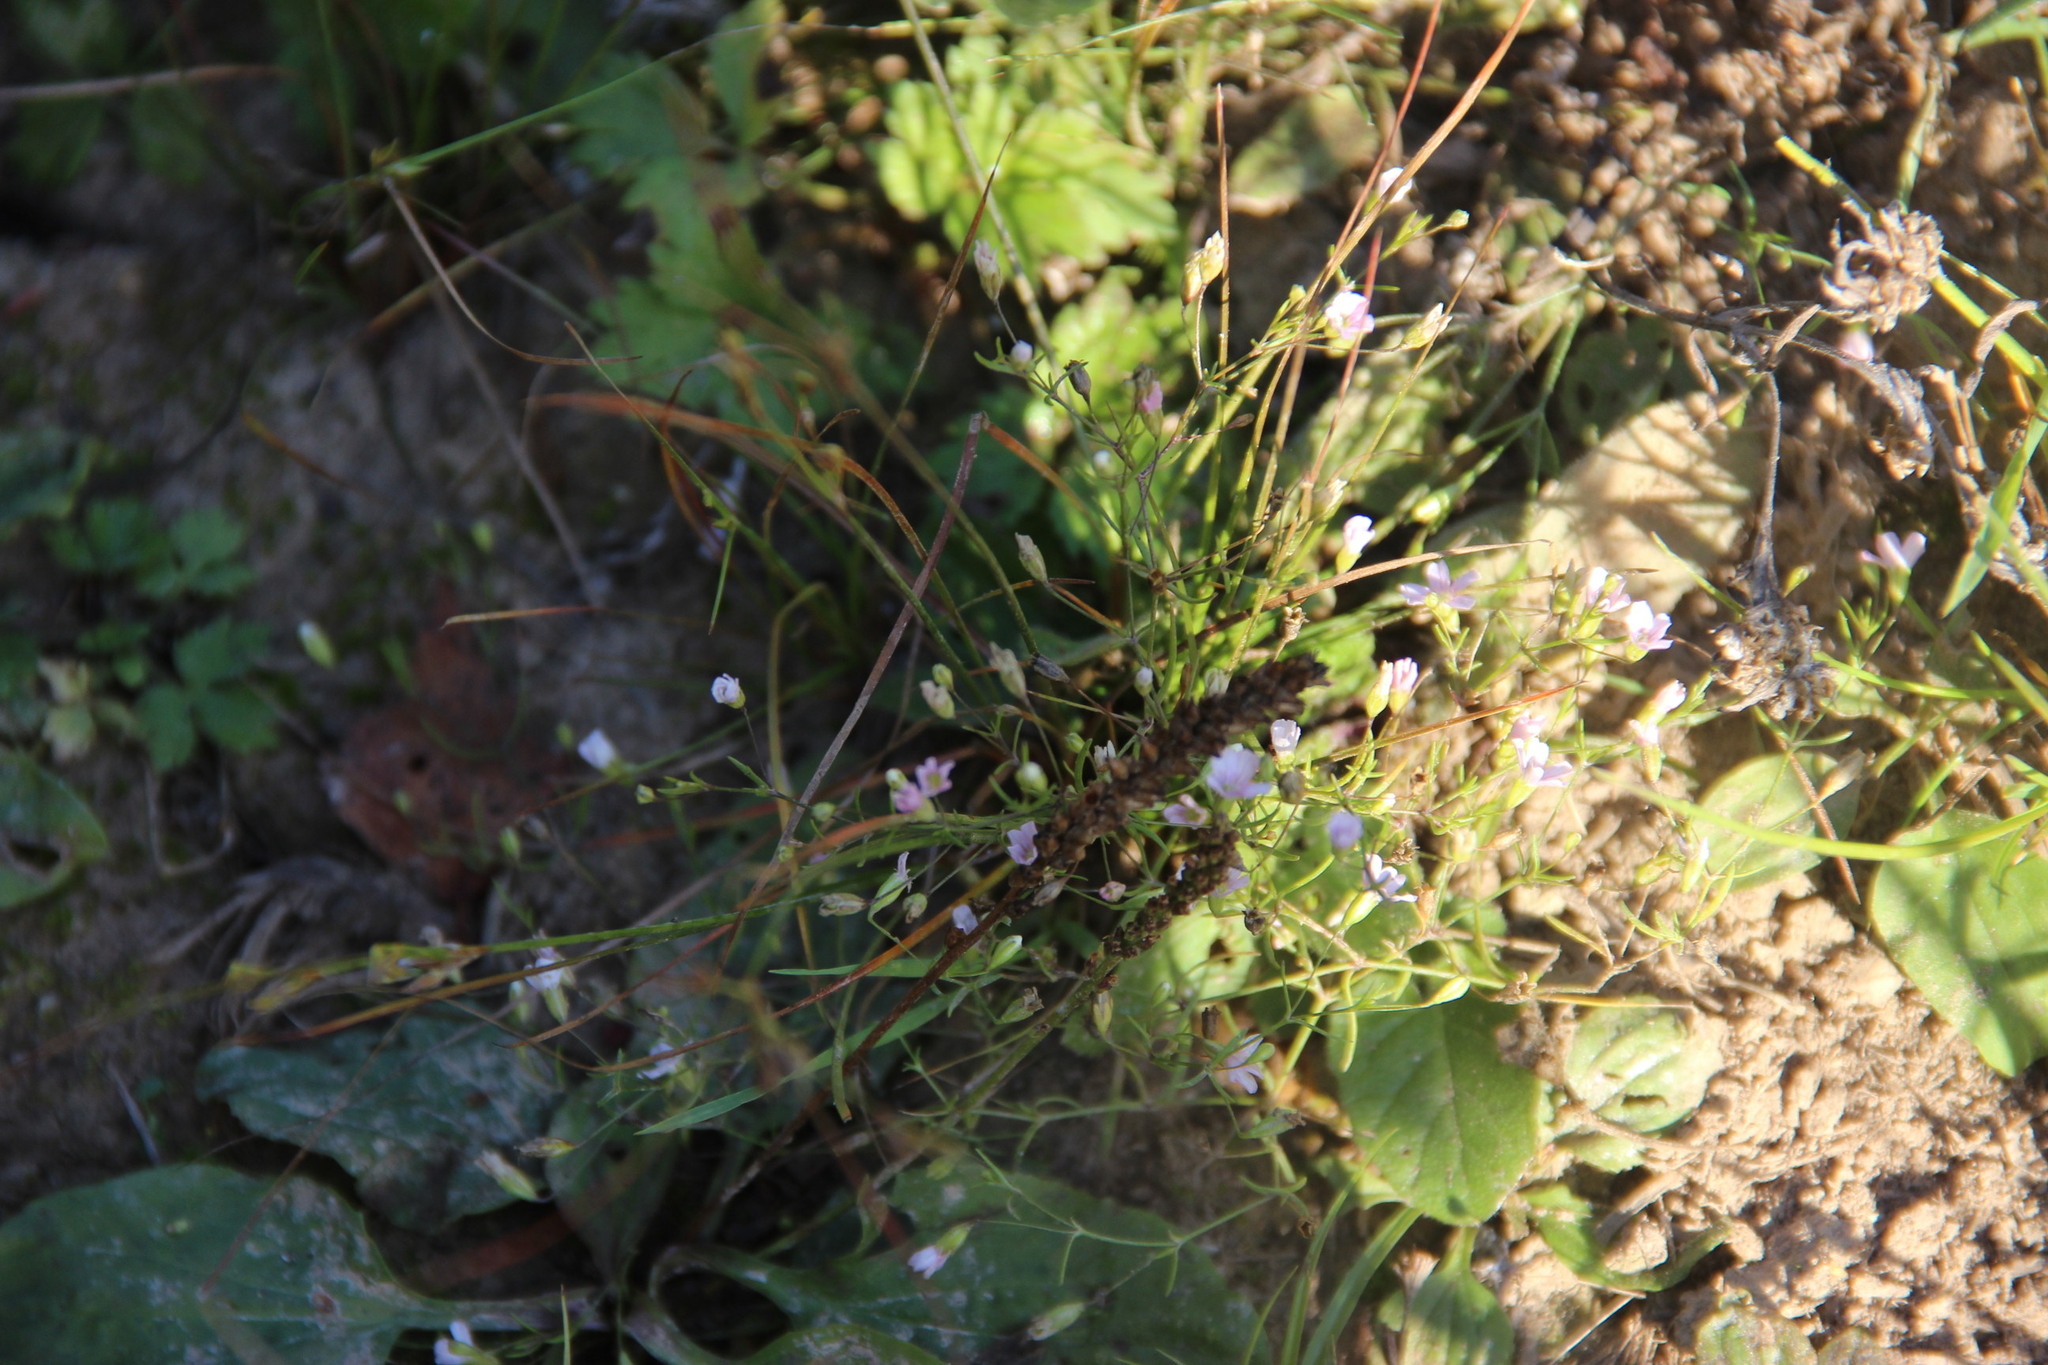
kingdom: Plantae
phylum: Tracheophyta
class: Magnoliopsida
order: Caryophyllales
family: Caryophyllaceae
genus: Psammophiliella
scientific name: Psammophiliella muralis
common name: Cushion baby's-breath
